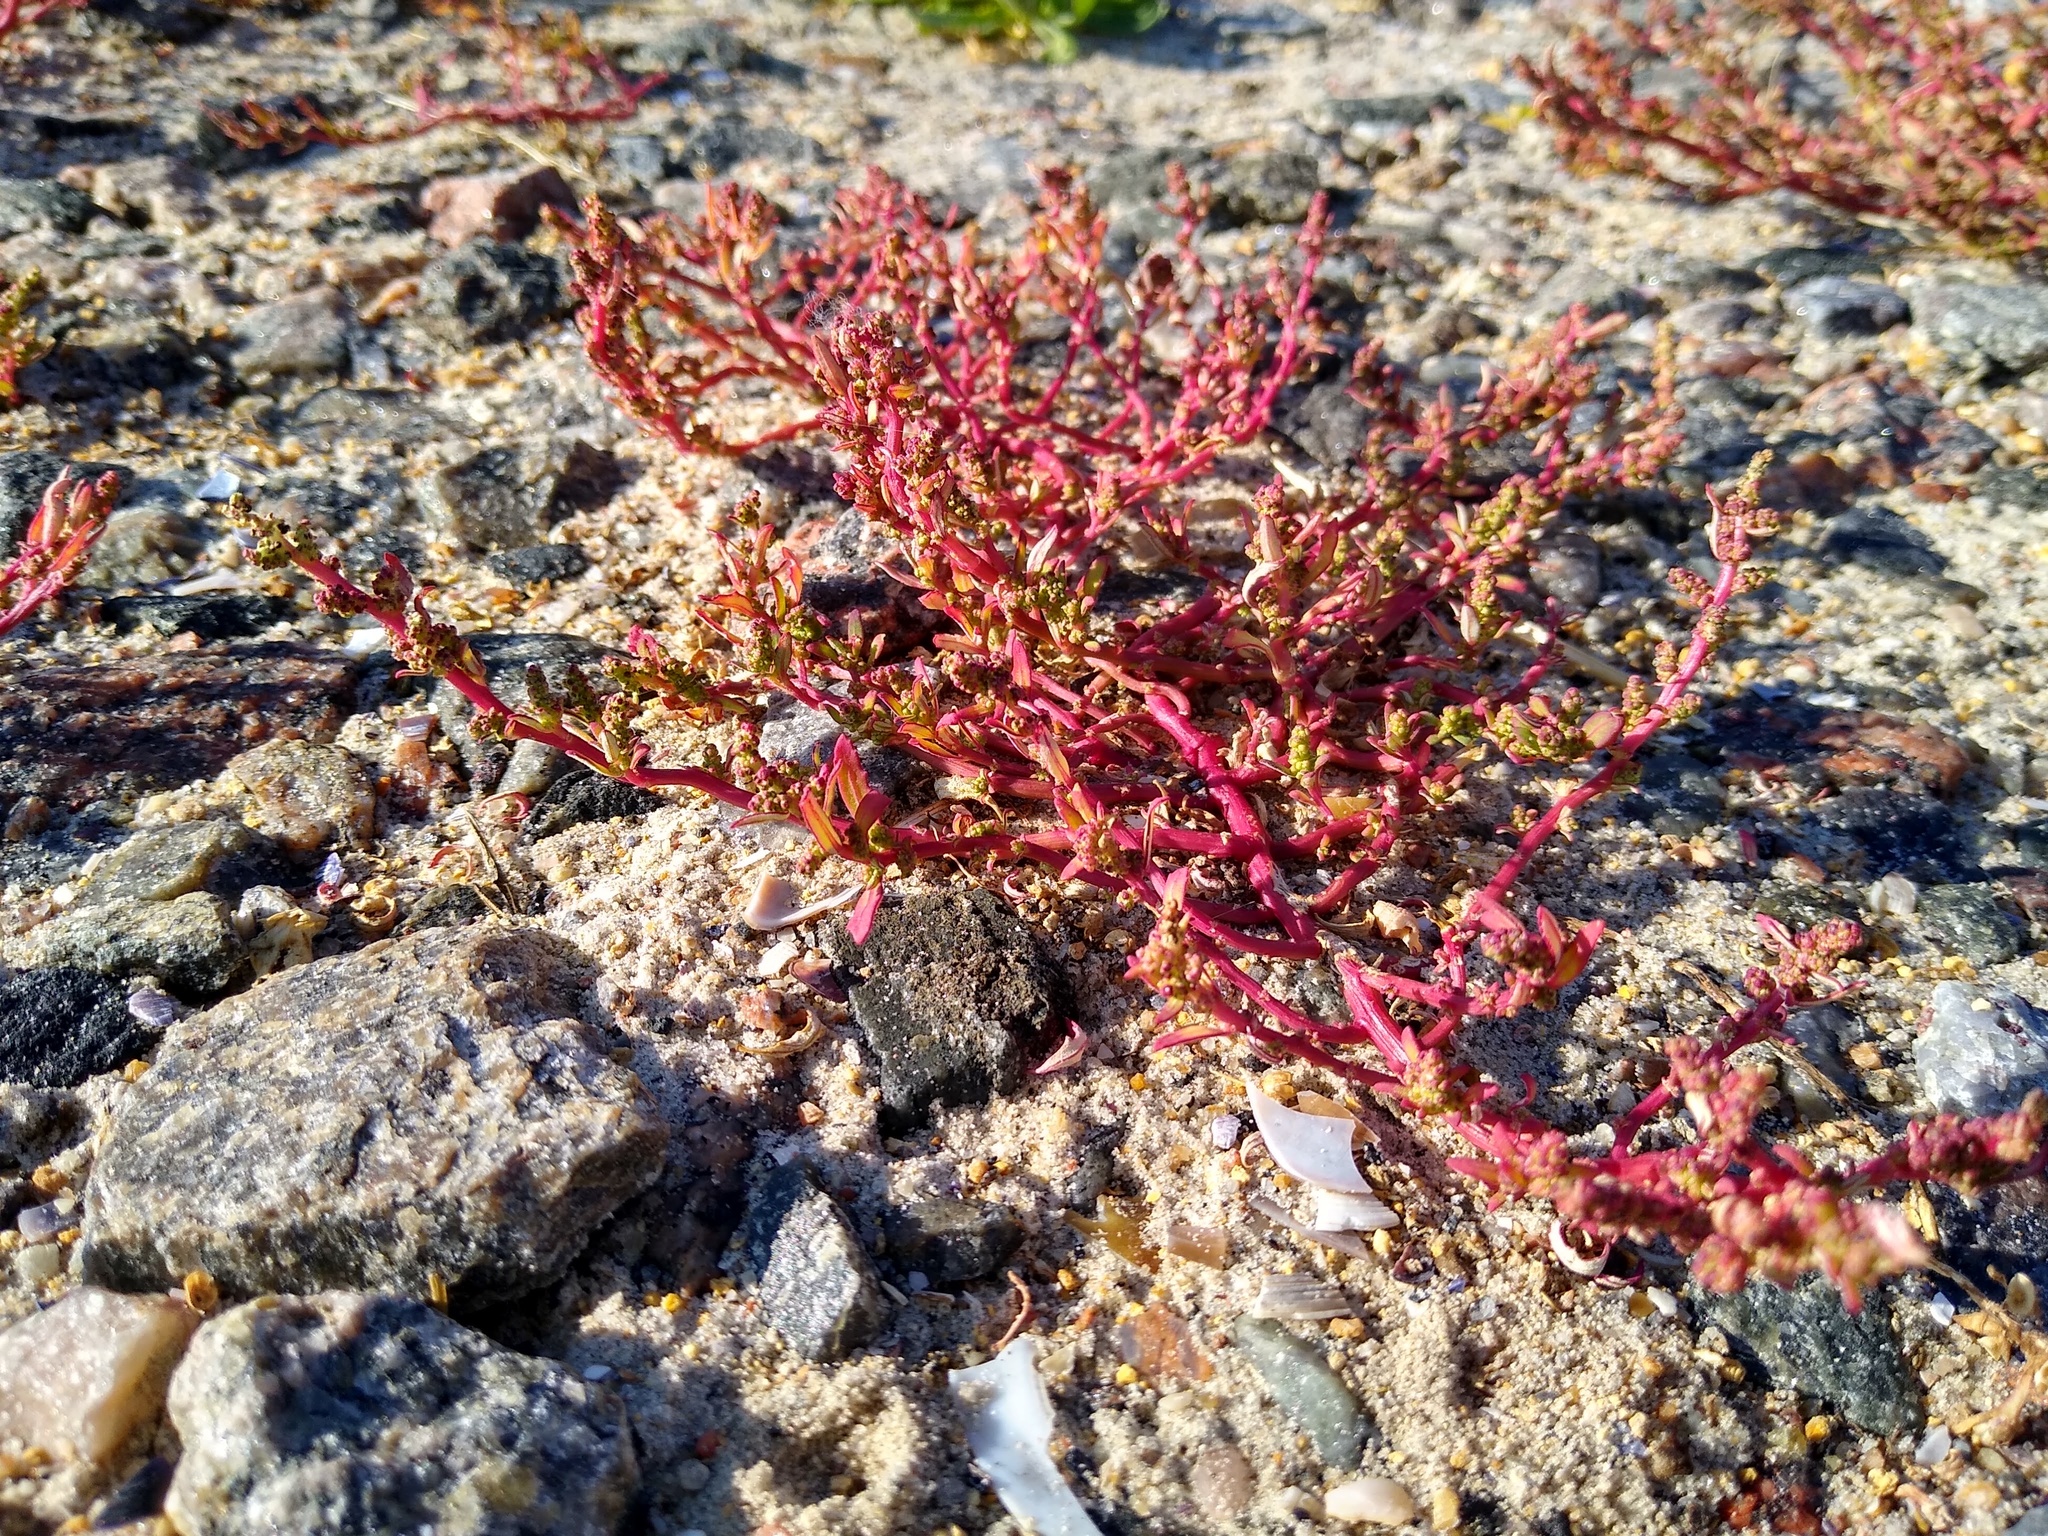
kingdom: Plantae
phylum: Tracheophyta
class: Magnoliopsida
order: Caryophyllales
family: Amaranthaceae
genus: Oxybasis
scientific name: Oxybasis chenopodioides
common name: Saltmarsh goosefoot
